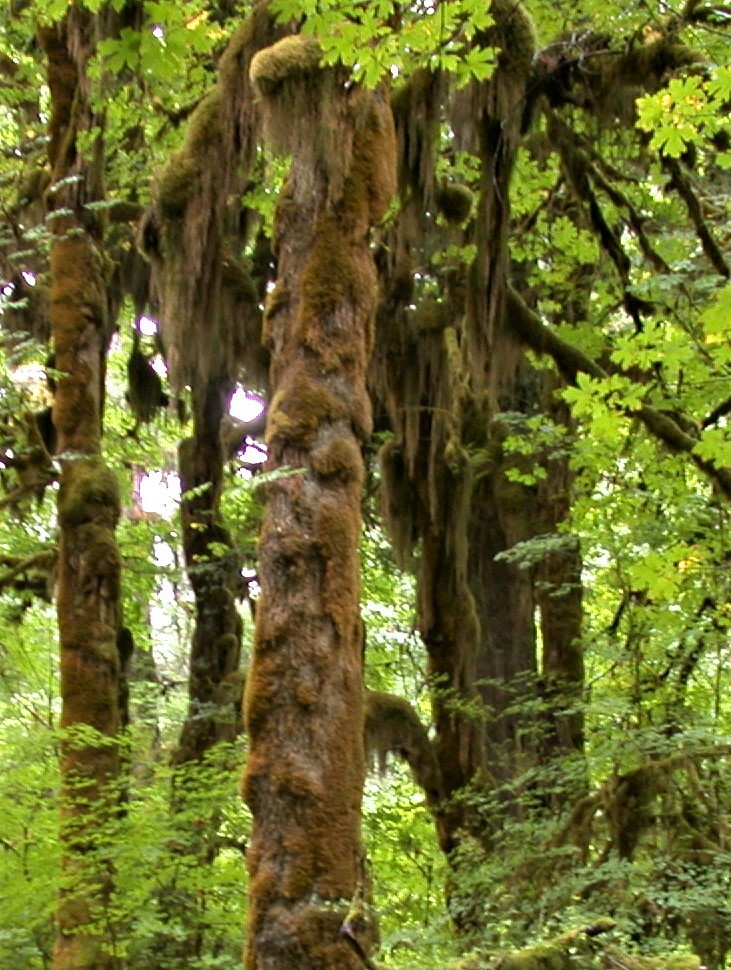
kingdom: Plantae
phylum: Tracheophyta
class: Magnoliopsida
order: Sapindales
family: Sapindaceae
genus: Acer
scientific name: Acer macrophyllum
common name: Oregon maple
